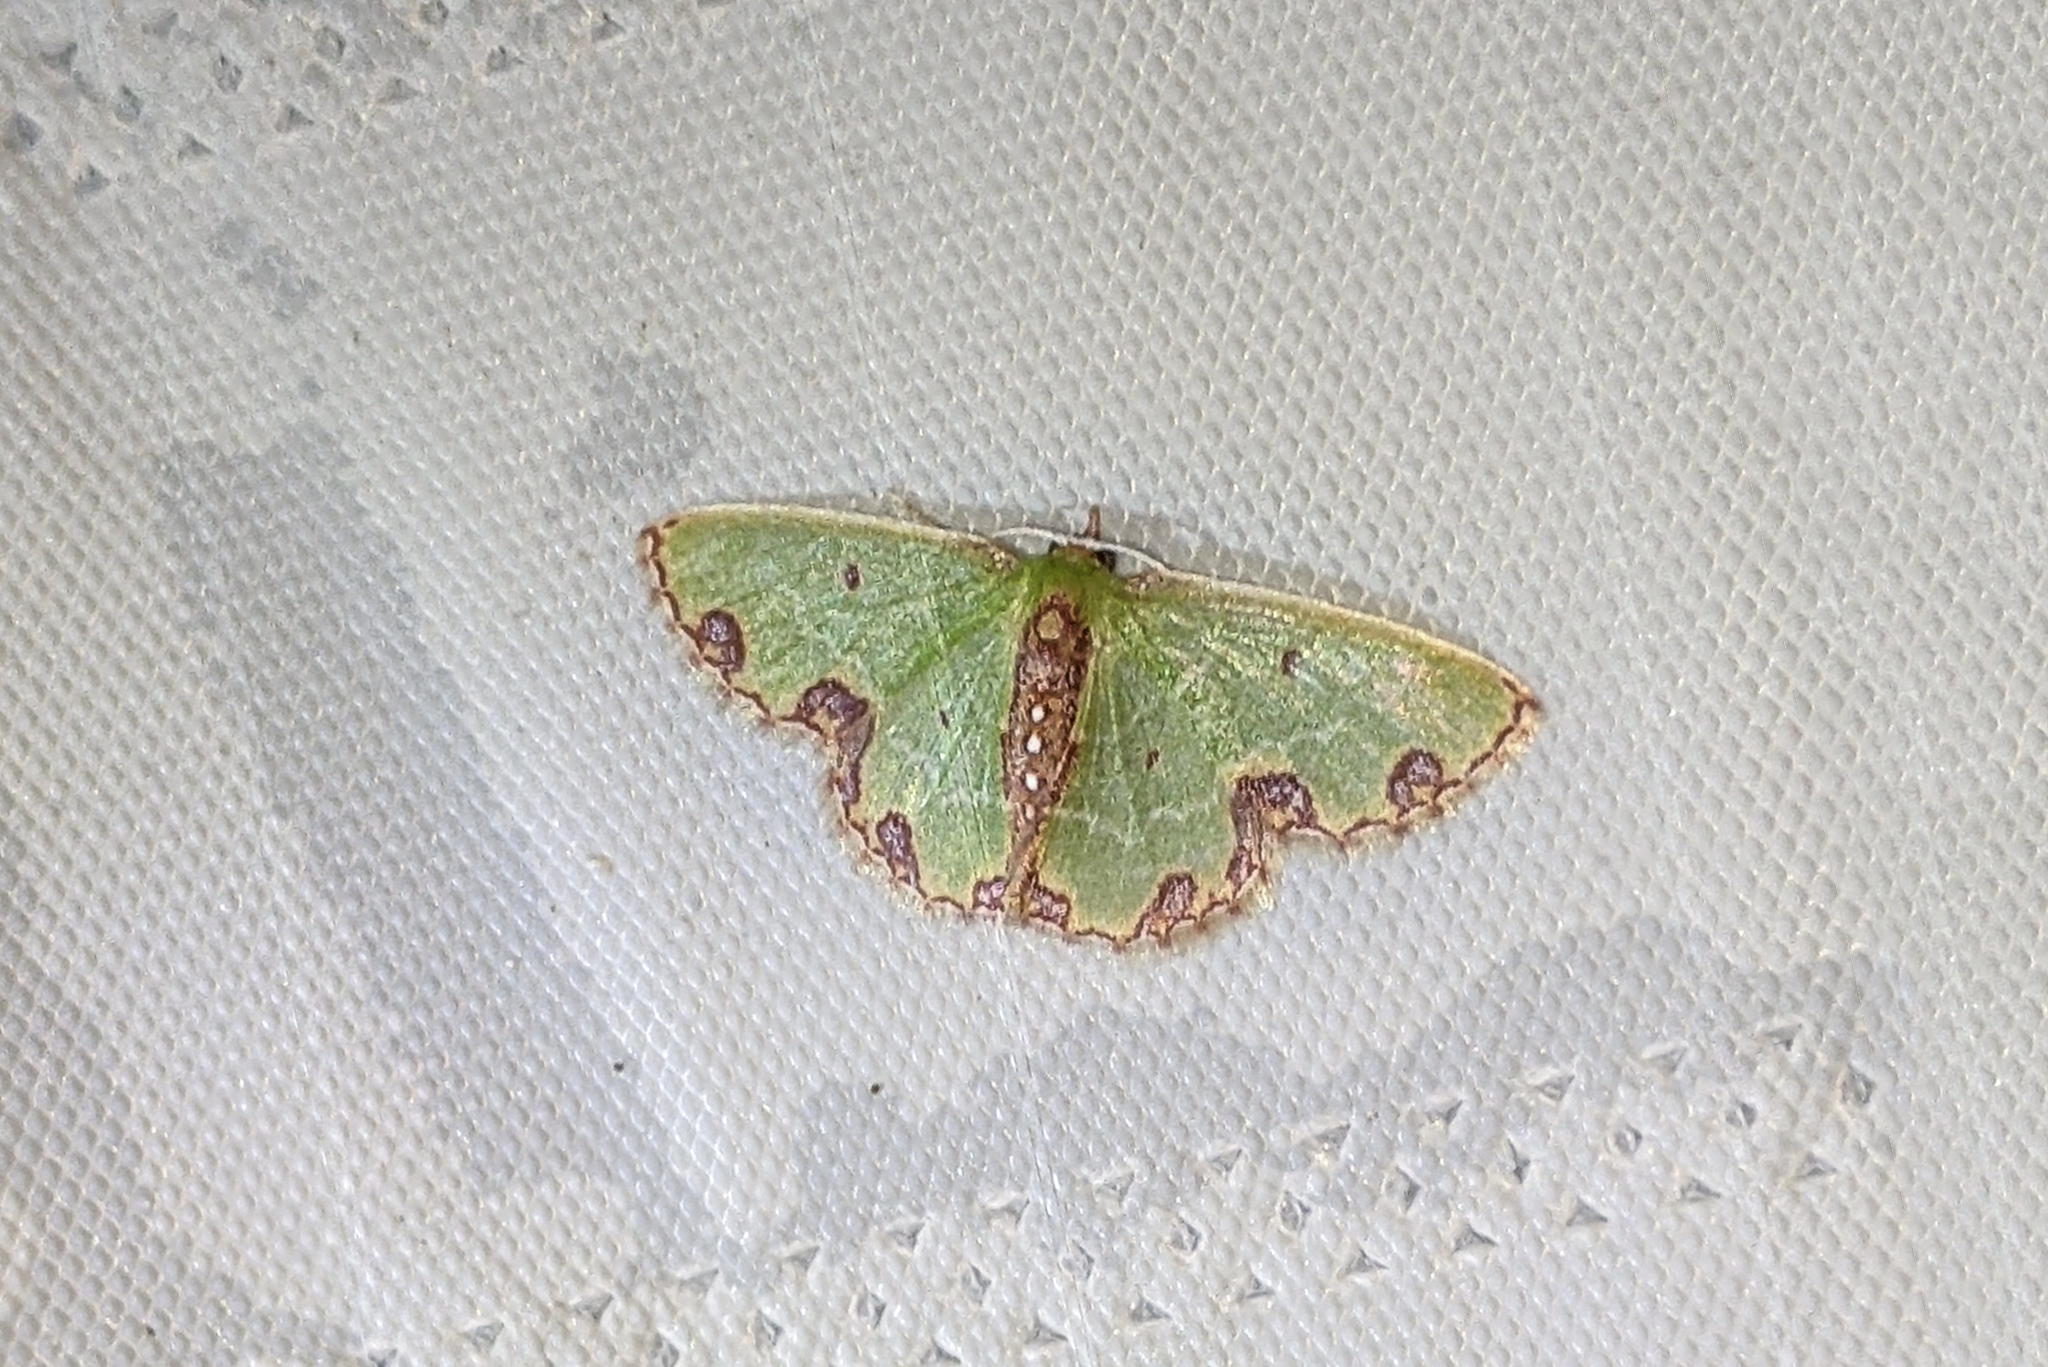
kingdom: Animalia
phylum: Arthropoda
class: Insecta
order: Lepidoptera
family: Geometridae
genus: Synchlora
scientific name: Synchlora gerularia
